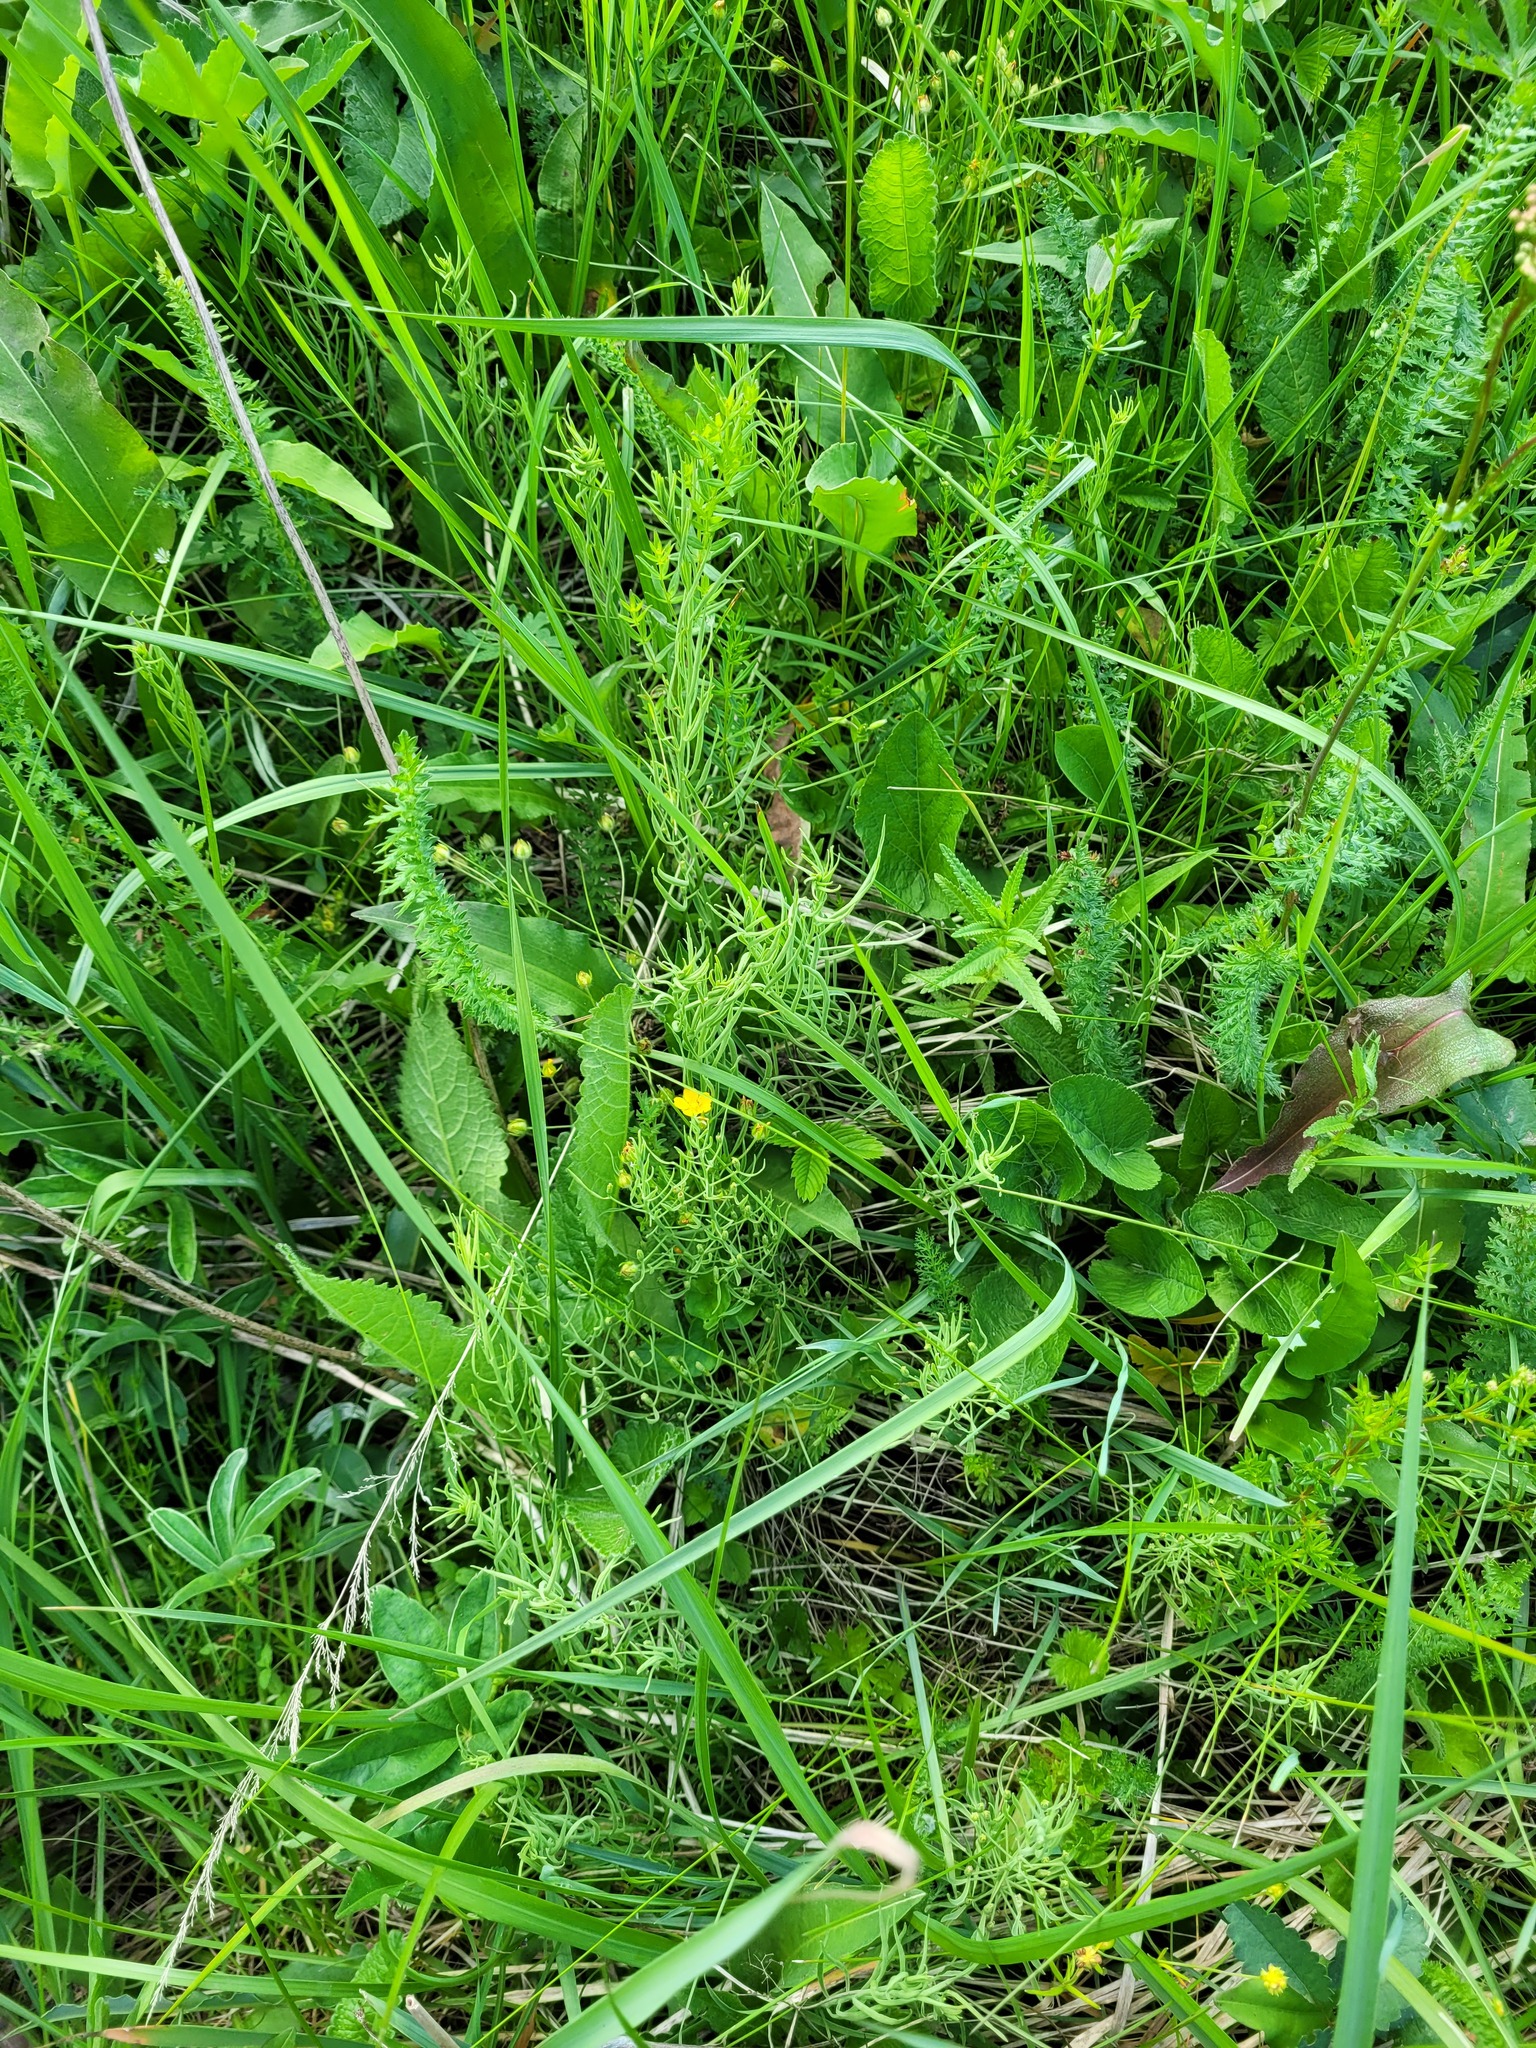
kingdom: Plantae
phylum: Tracheophyta
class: Magnoliopsida
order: Santalales
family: Thesiaceae
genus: Thesium
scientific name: Thesium ebracteatum
